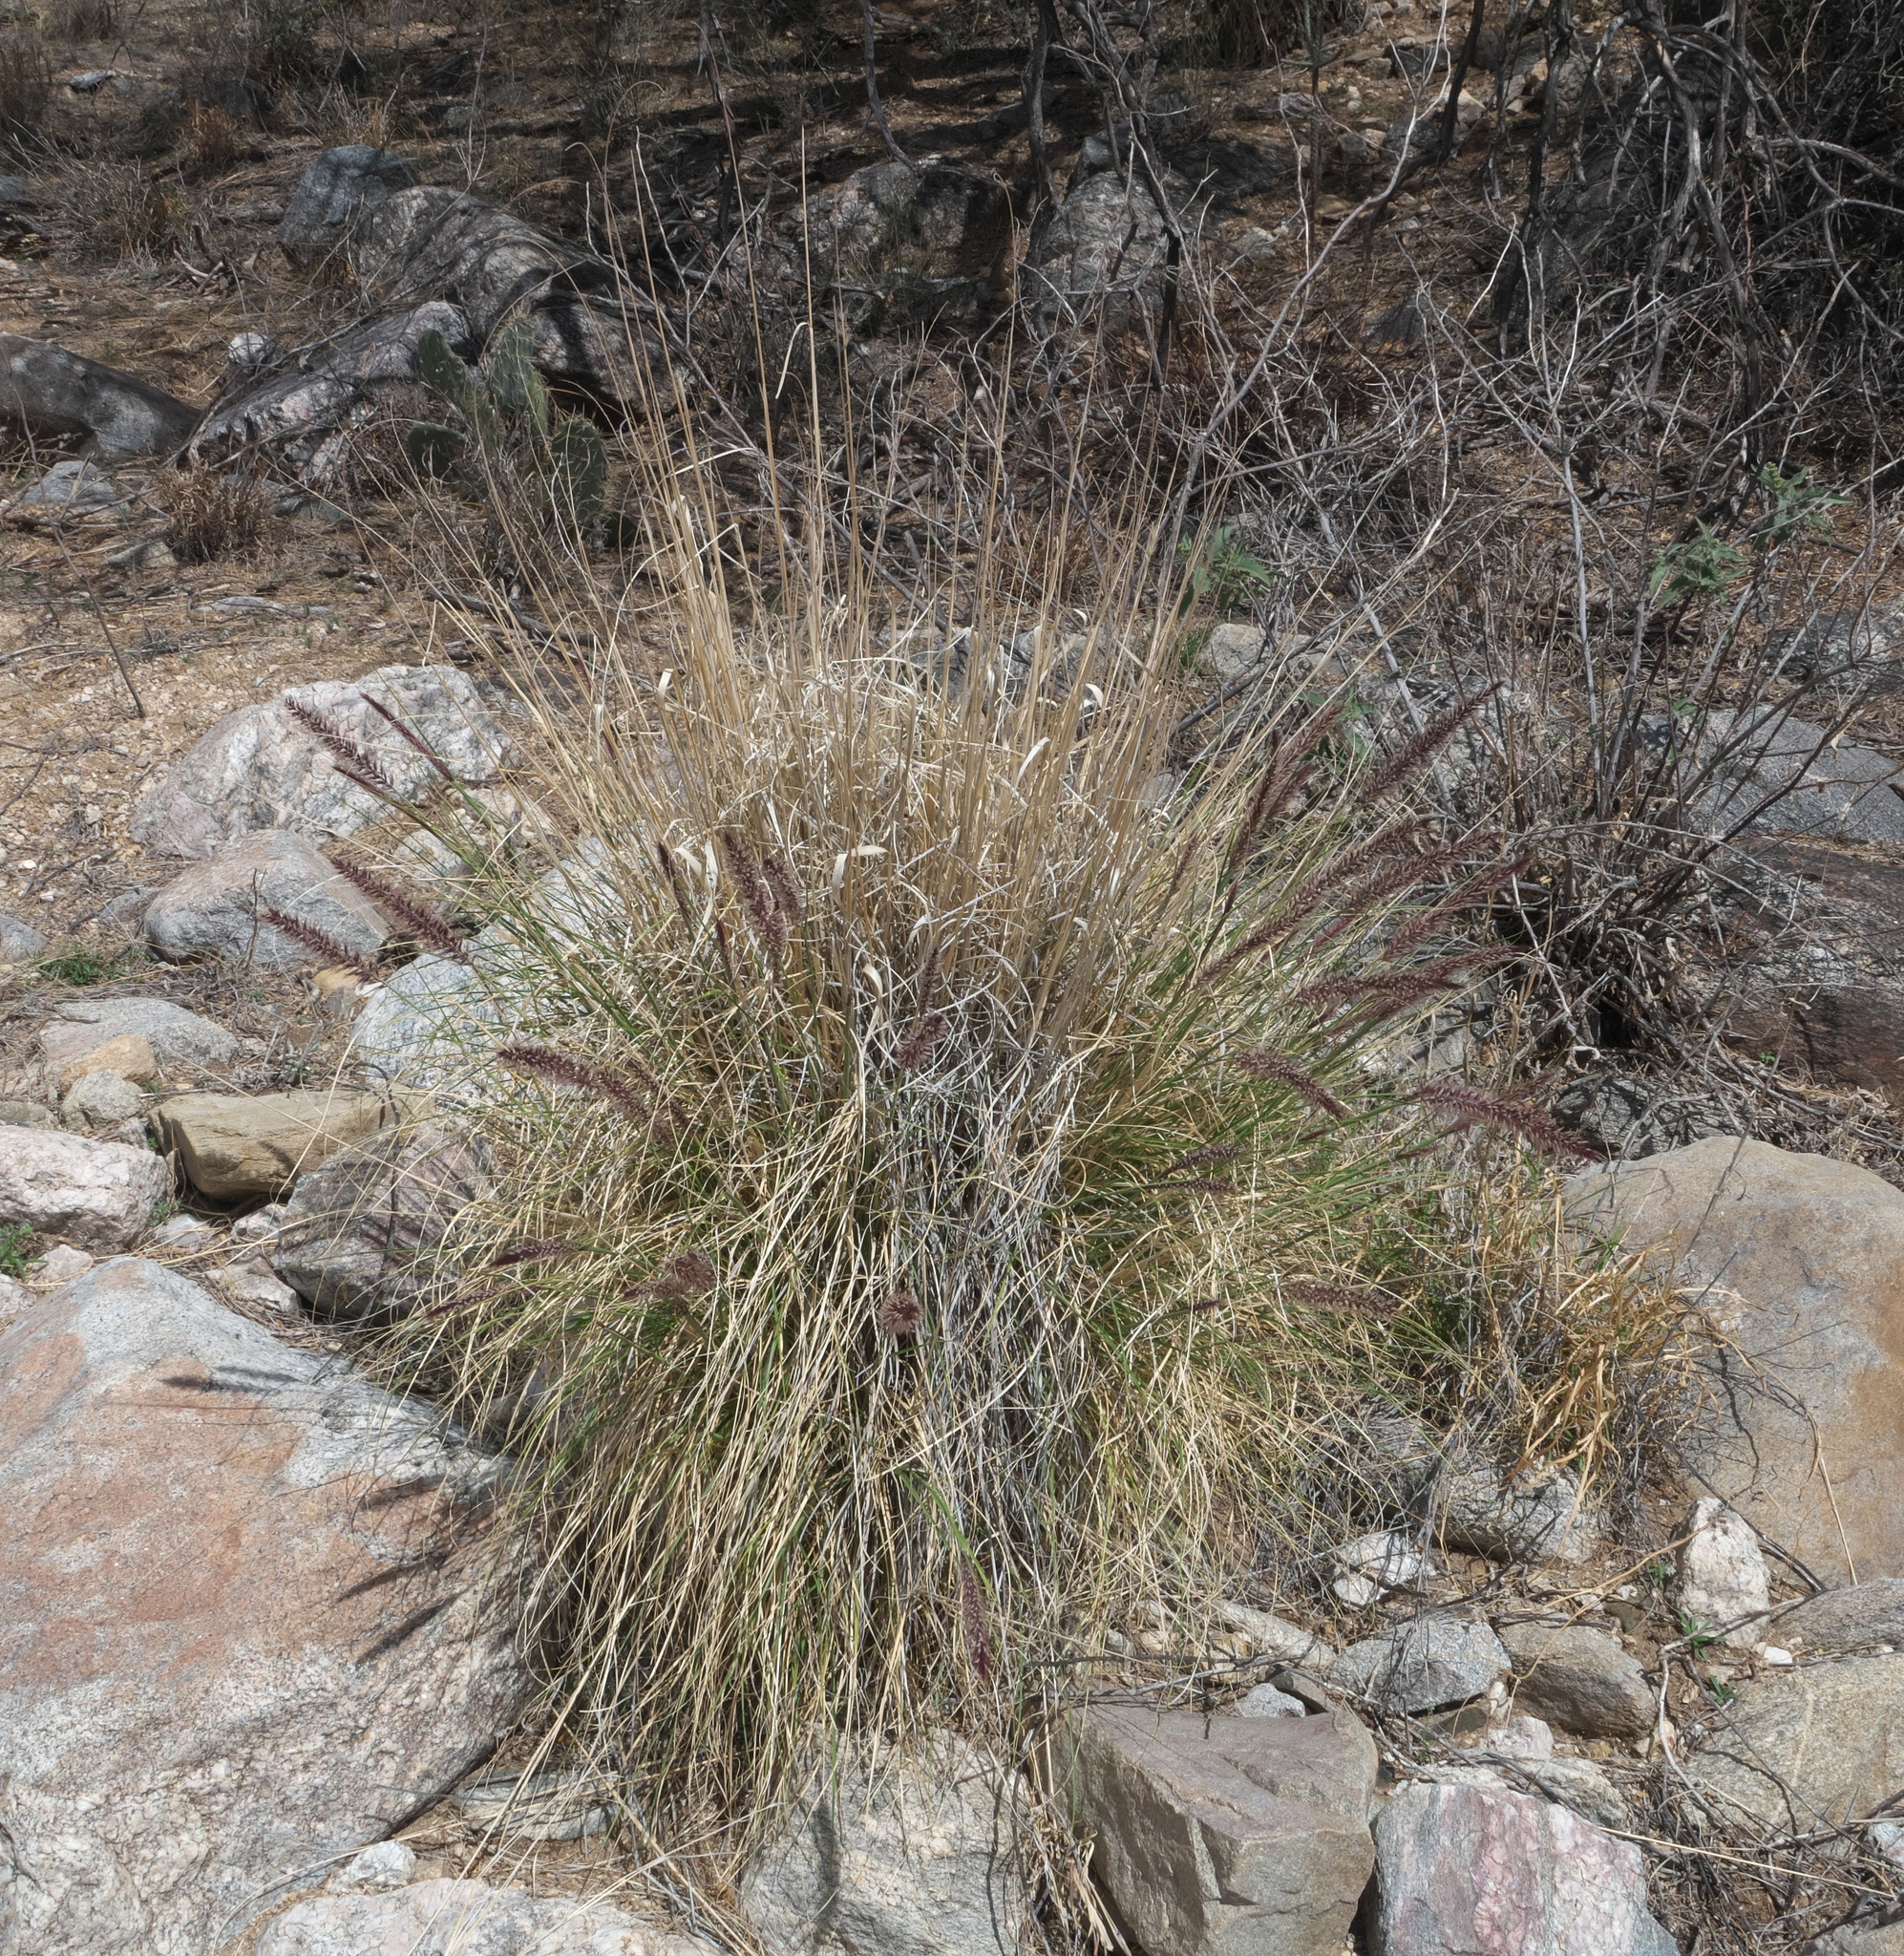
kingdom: Plantae
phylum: Tracheophyta
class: Liliopsida
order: Poales
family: Poaceae
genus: Cenchrus
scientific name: Cenchrus setaceus
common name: Crimson fountaingrass
